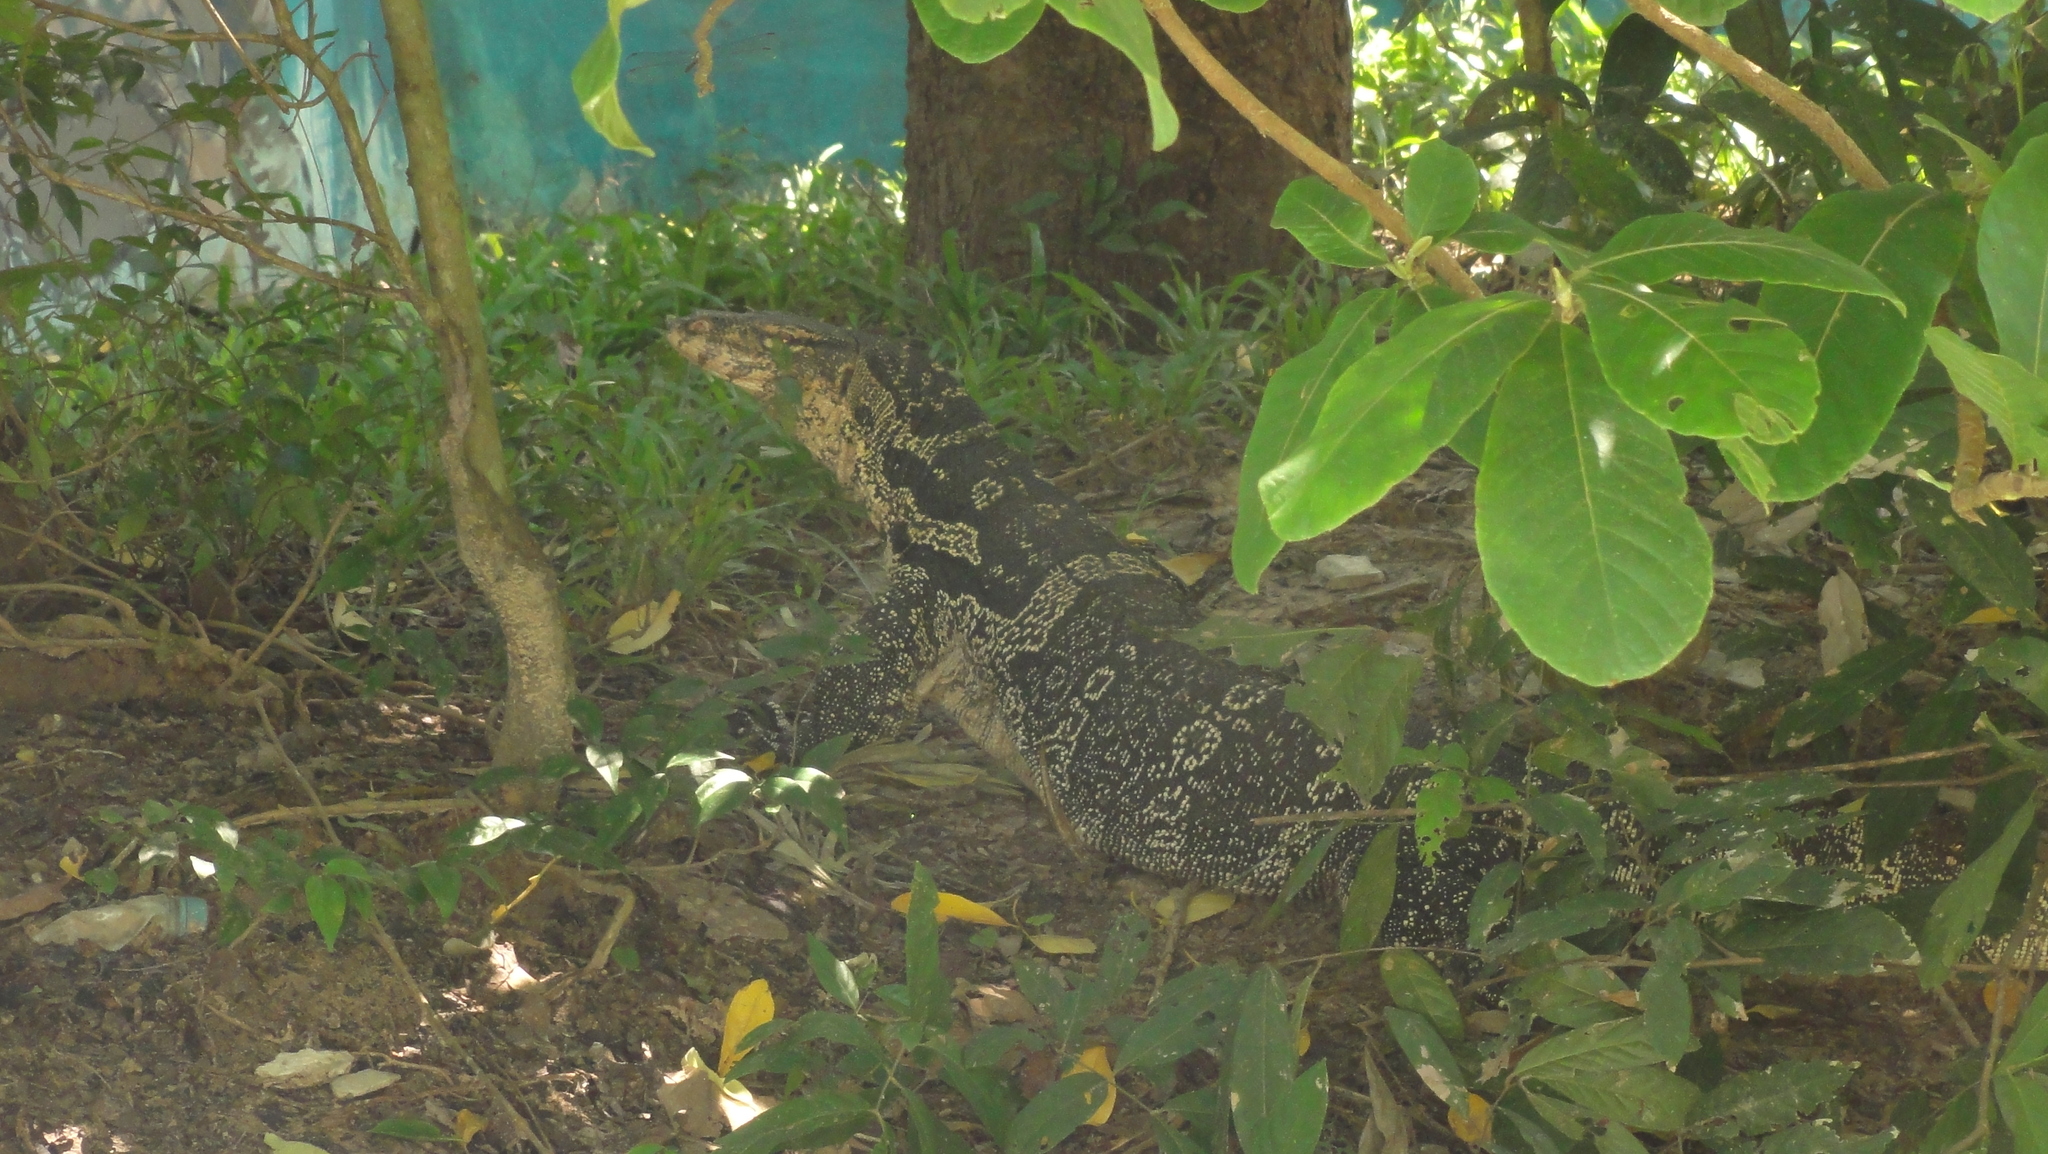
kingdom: Animalia
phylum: Chordata
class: Squamata
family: Varanidae
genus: Varanus
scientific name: Varanus salvator
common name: Common water monitor
